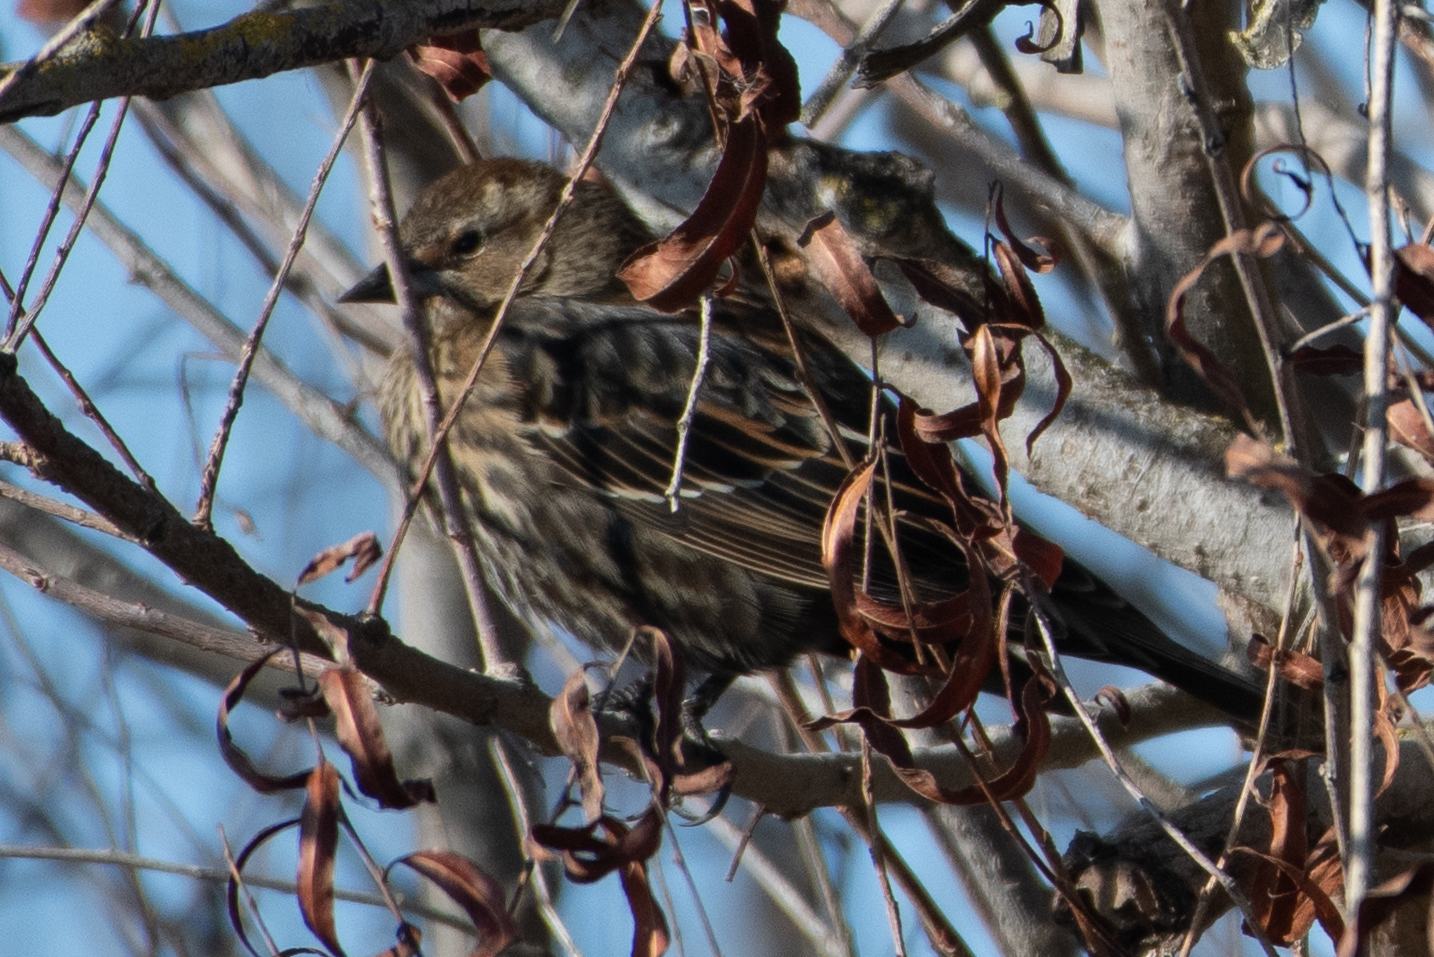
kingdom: Animalia
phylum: Chordata
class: Aves
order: Passeriformes
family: Icteridae
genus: Agelaius
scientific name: Agelaius phoeniceus
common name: Red-winged blackbird
